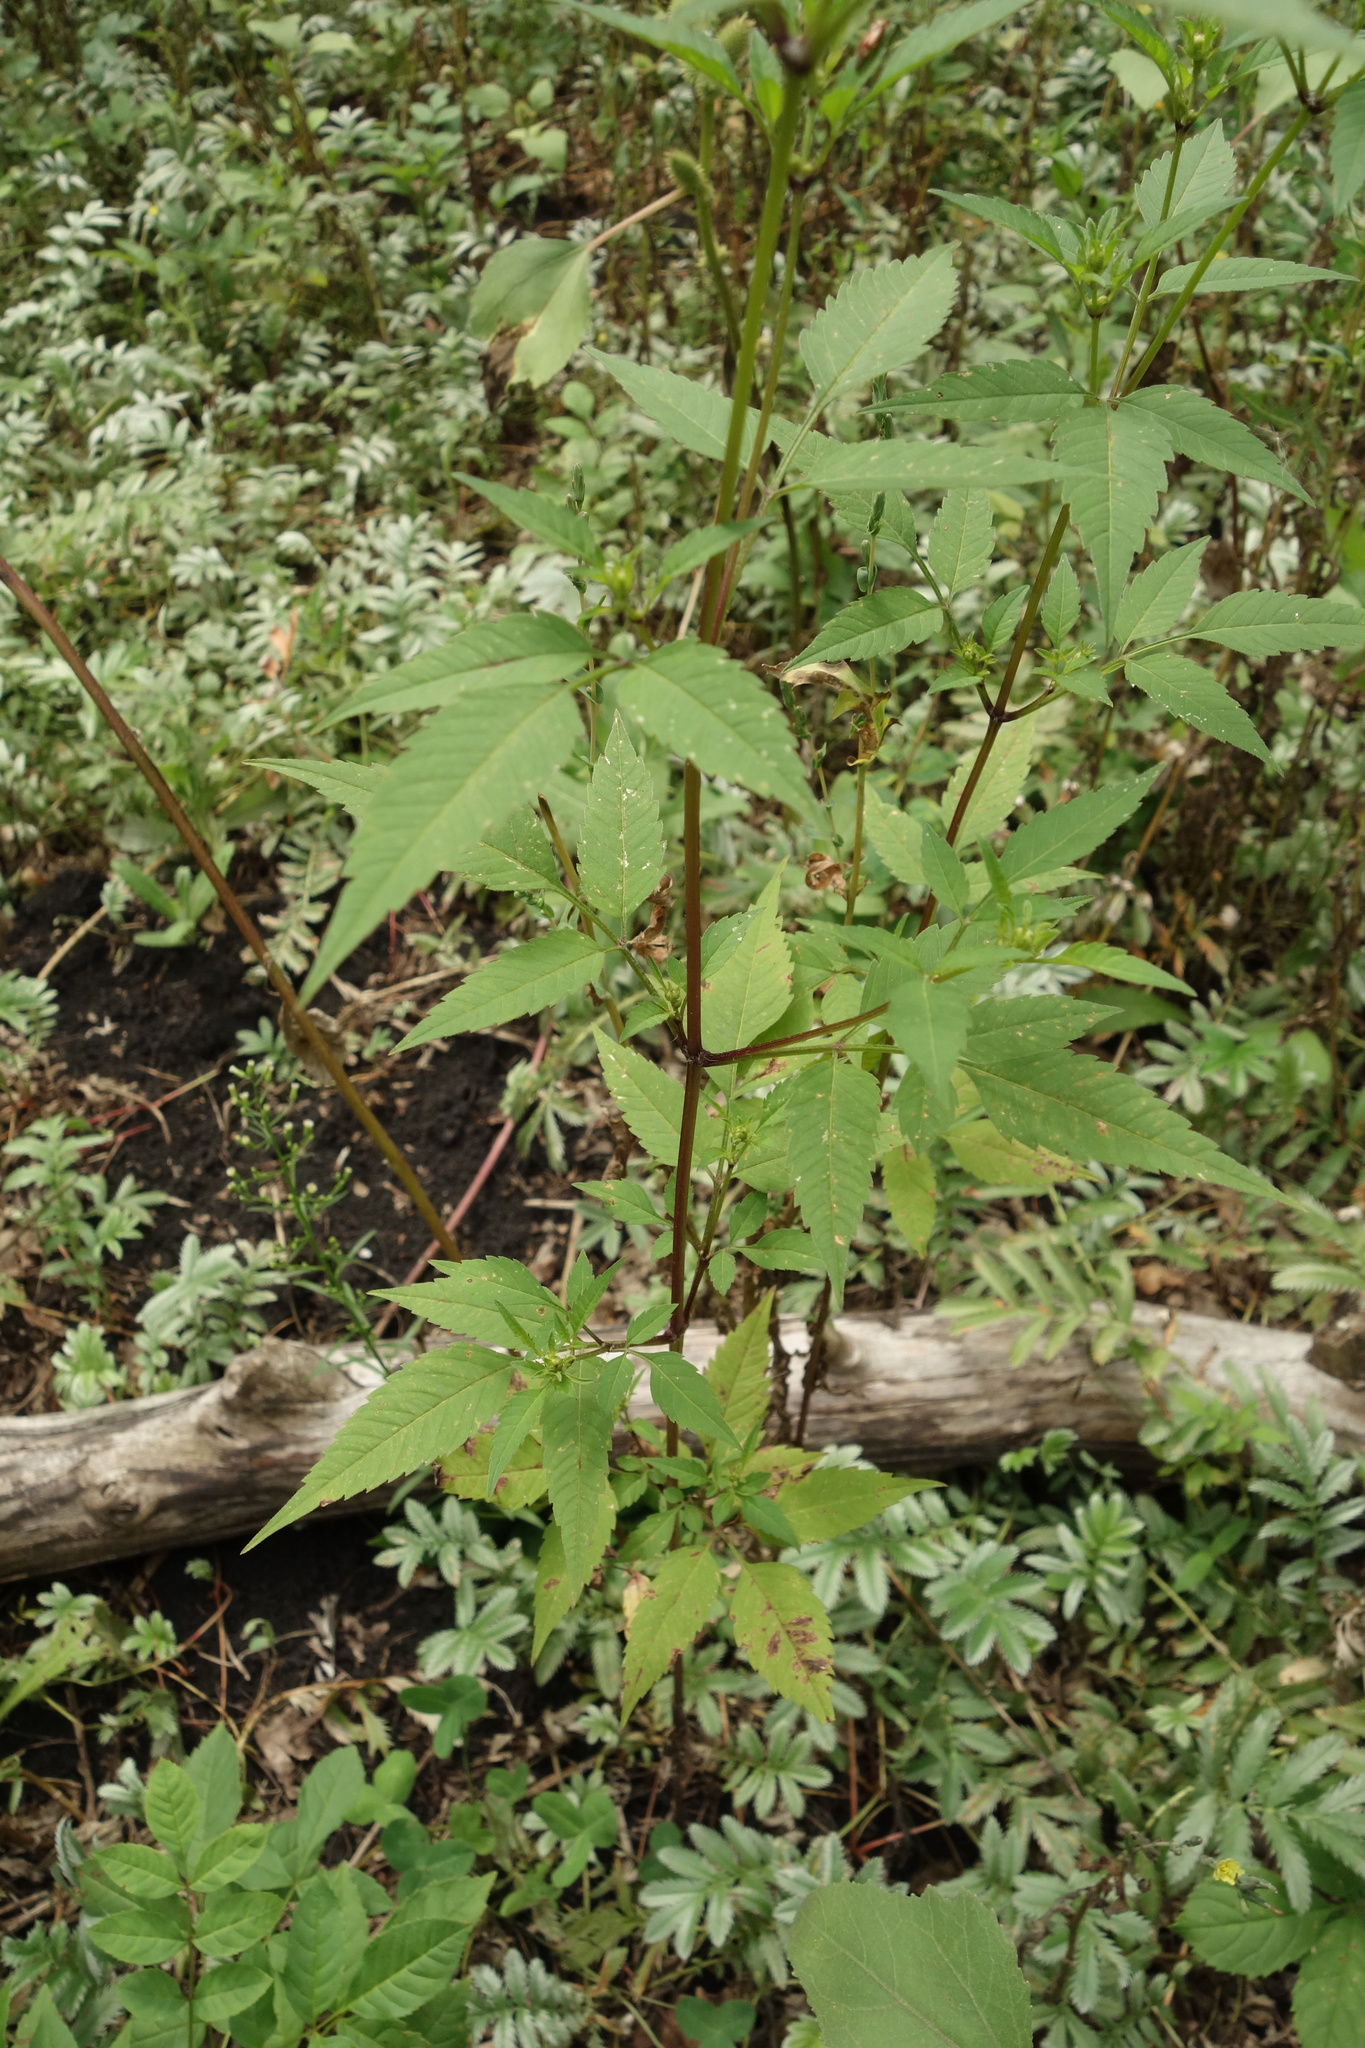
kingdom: Plantae
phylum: Tracheophyta
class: Magnoliopsida
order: Asterales
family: Asteraceae
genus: Bidens
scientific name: Bidens frondosa
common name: Beggarticks
